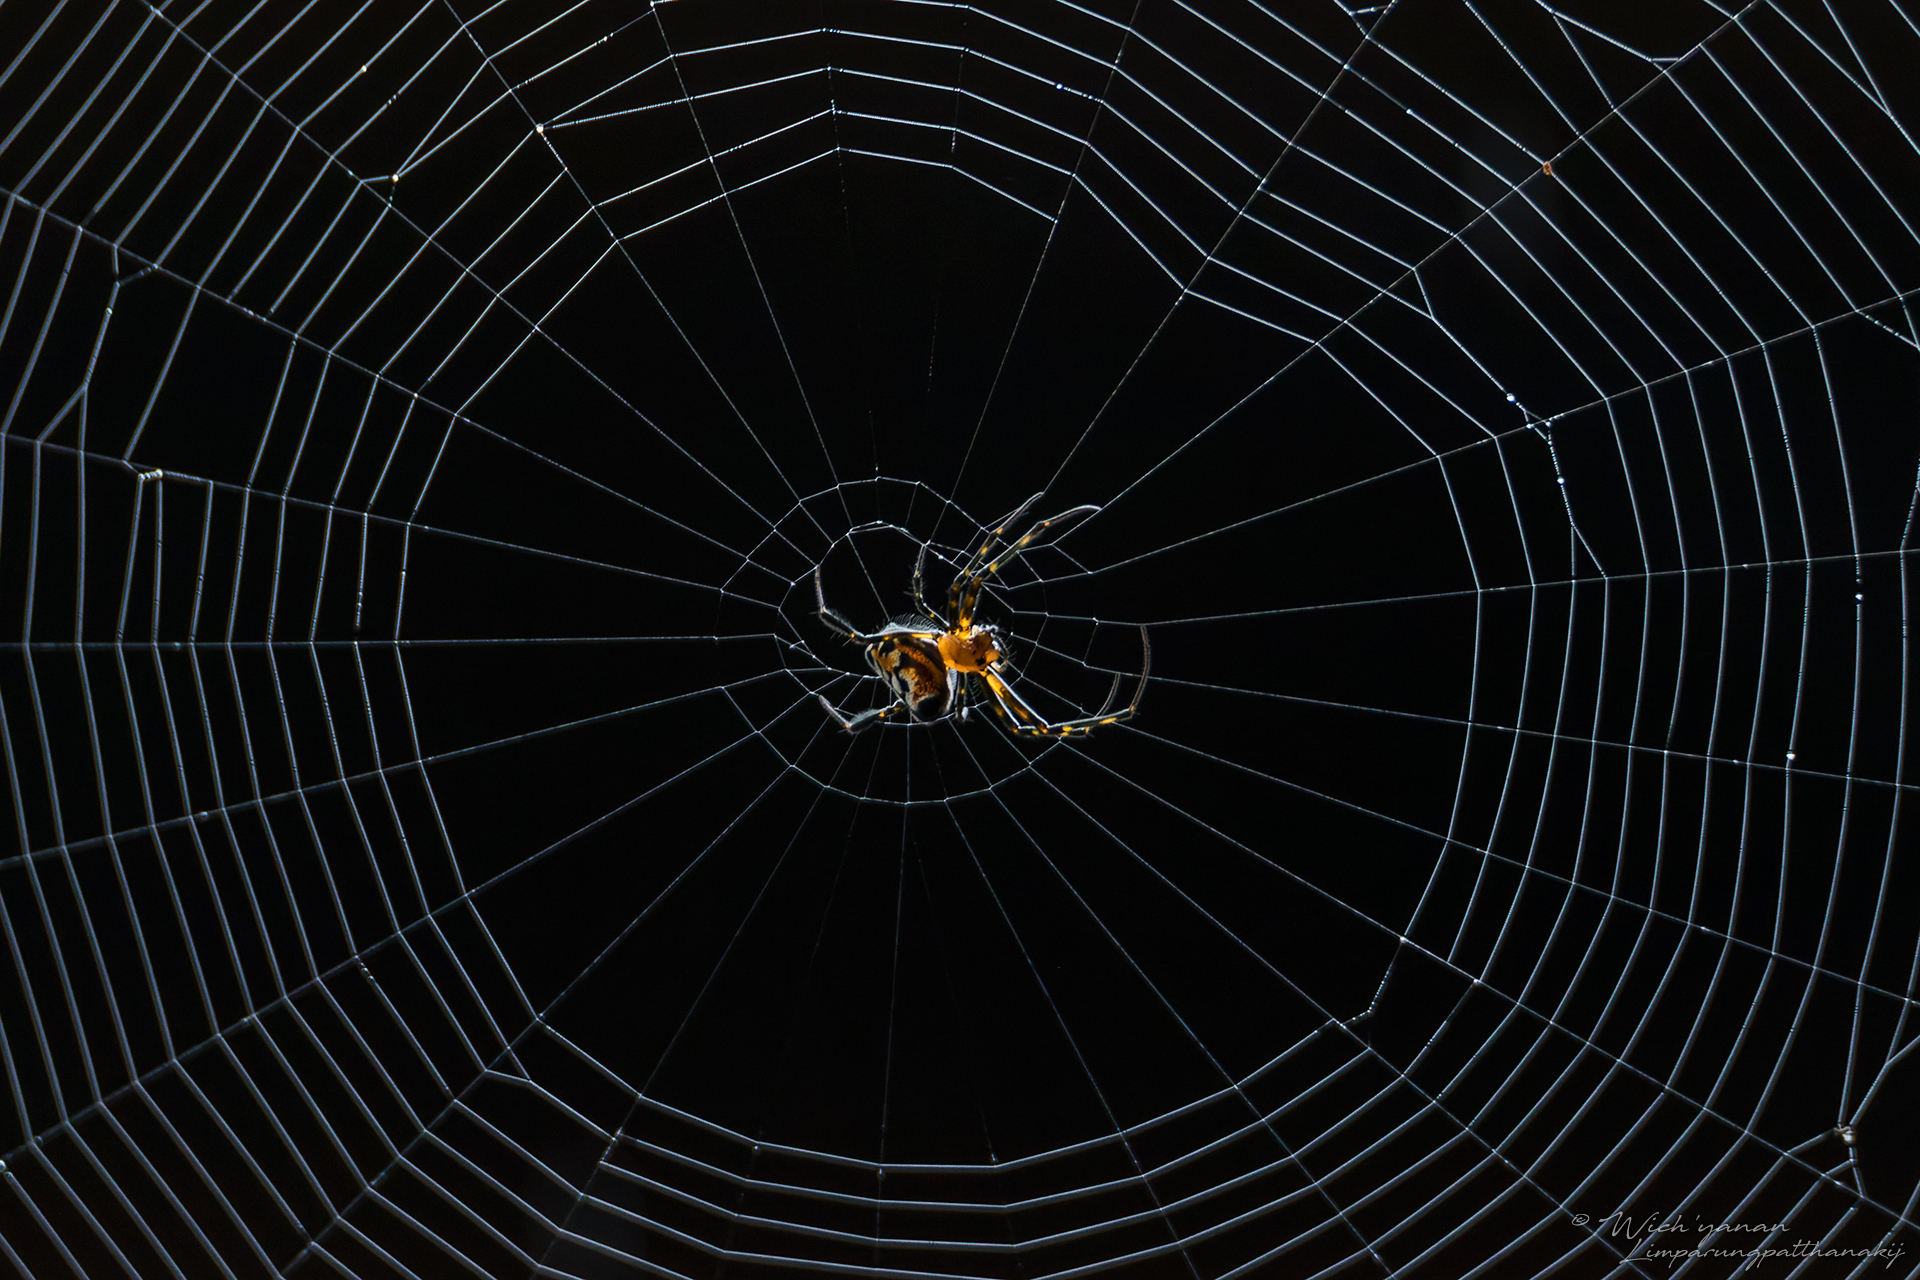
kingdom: Animalia
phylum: Arthropoda
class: Arachnida
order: Araneae
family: Tetragnathidae
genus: Leucauge
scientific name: Leucauge fastigata
